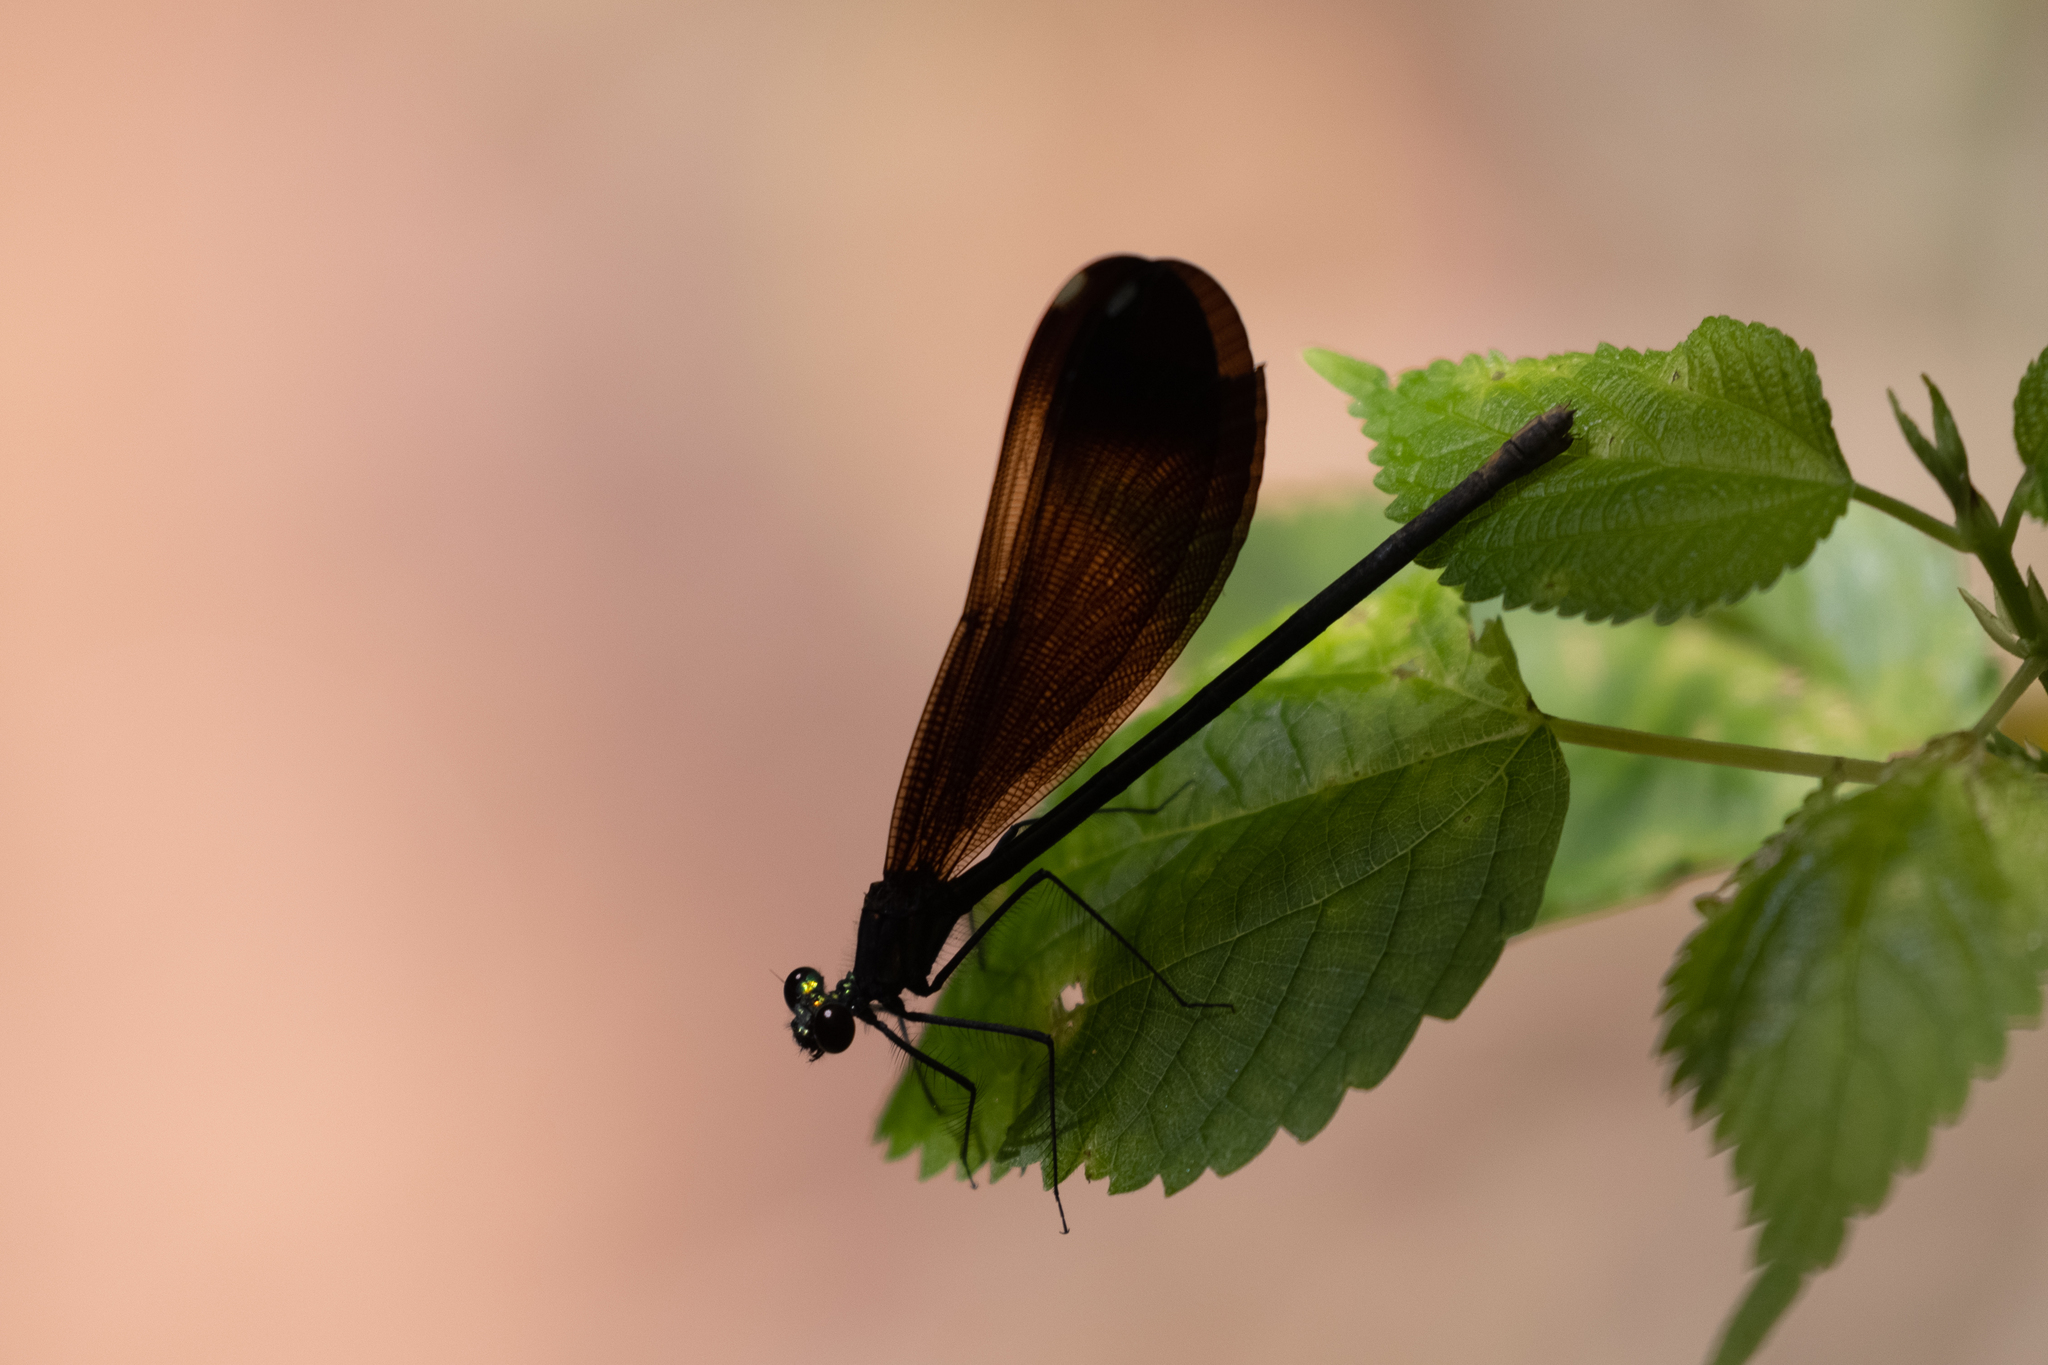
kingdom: Animalia
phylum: Arthropoda
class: Insecta
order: Odonata
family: Calopterygidae
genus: Calopteryx
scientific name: Calopteryx maculata
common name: Ebony jewelwing
